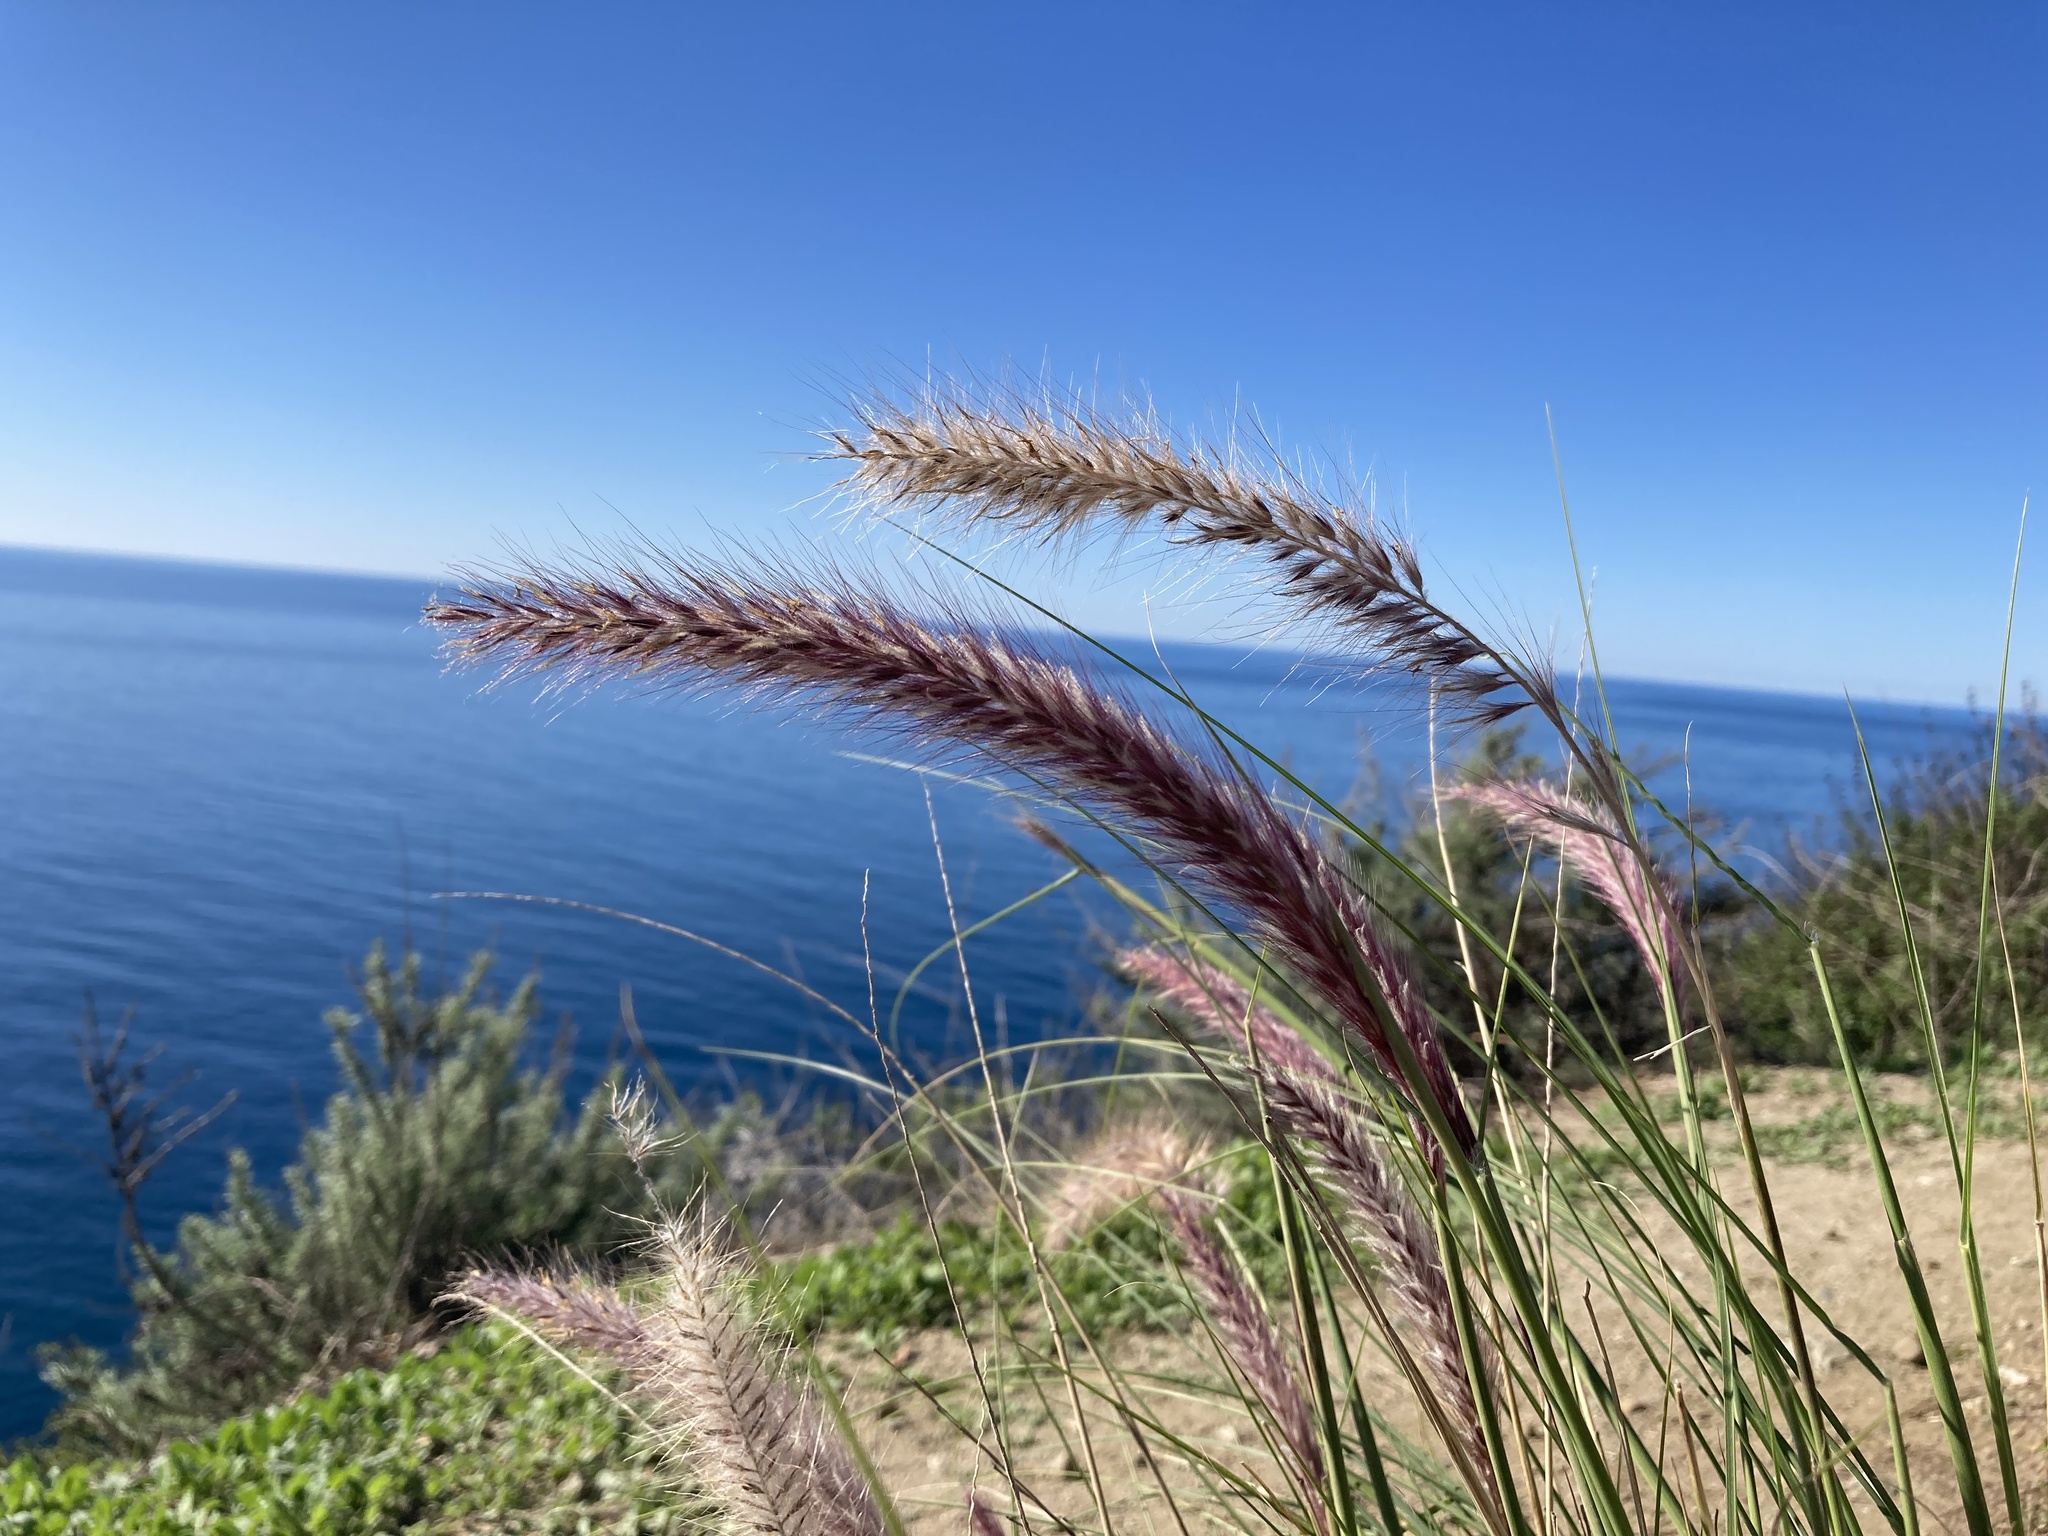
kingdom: Plantae
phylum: Tracheophyta
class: Liliopsida
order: Poales
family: Poaceae
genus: Cenchrus
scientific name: Cenchrus setaceus
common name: Crimson fountaingrass
